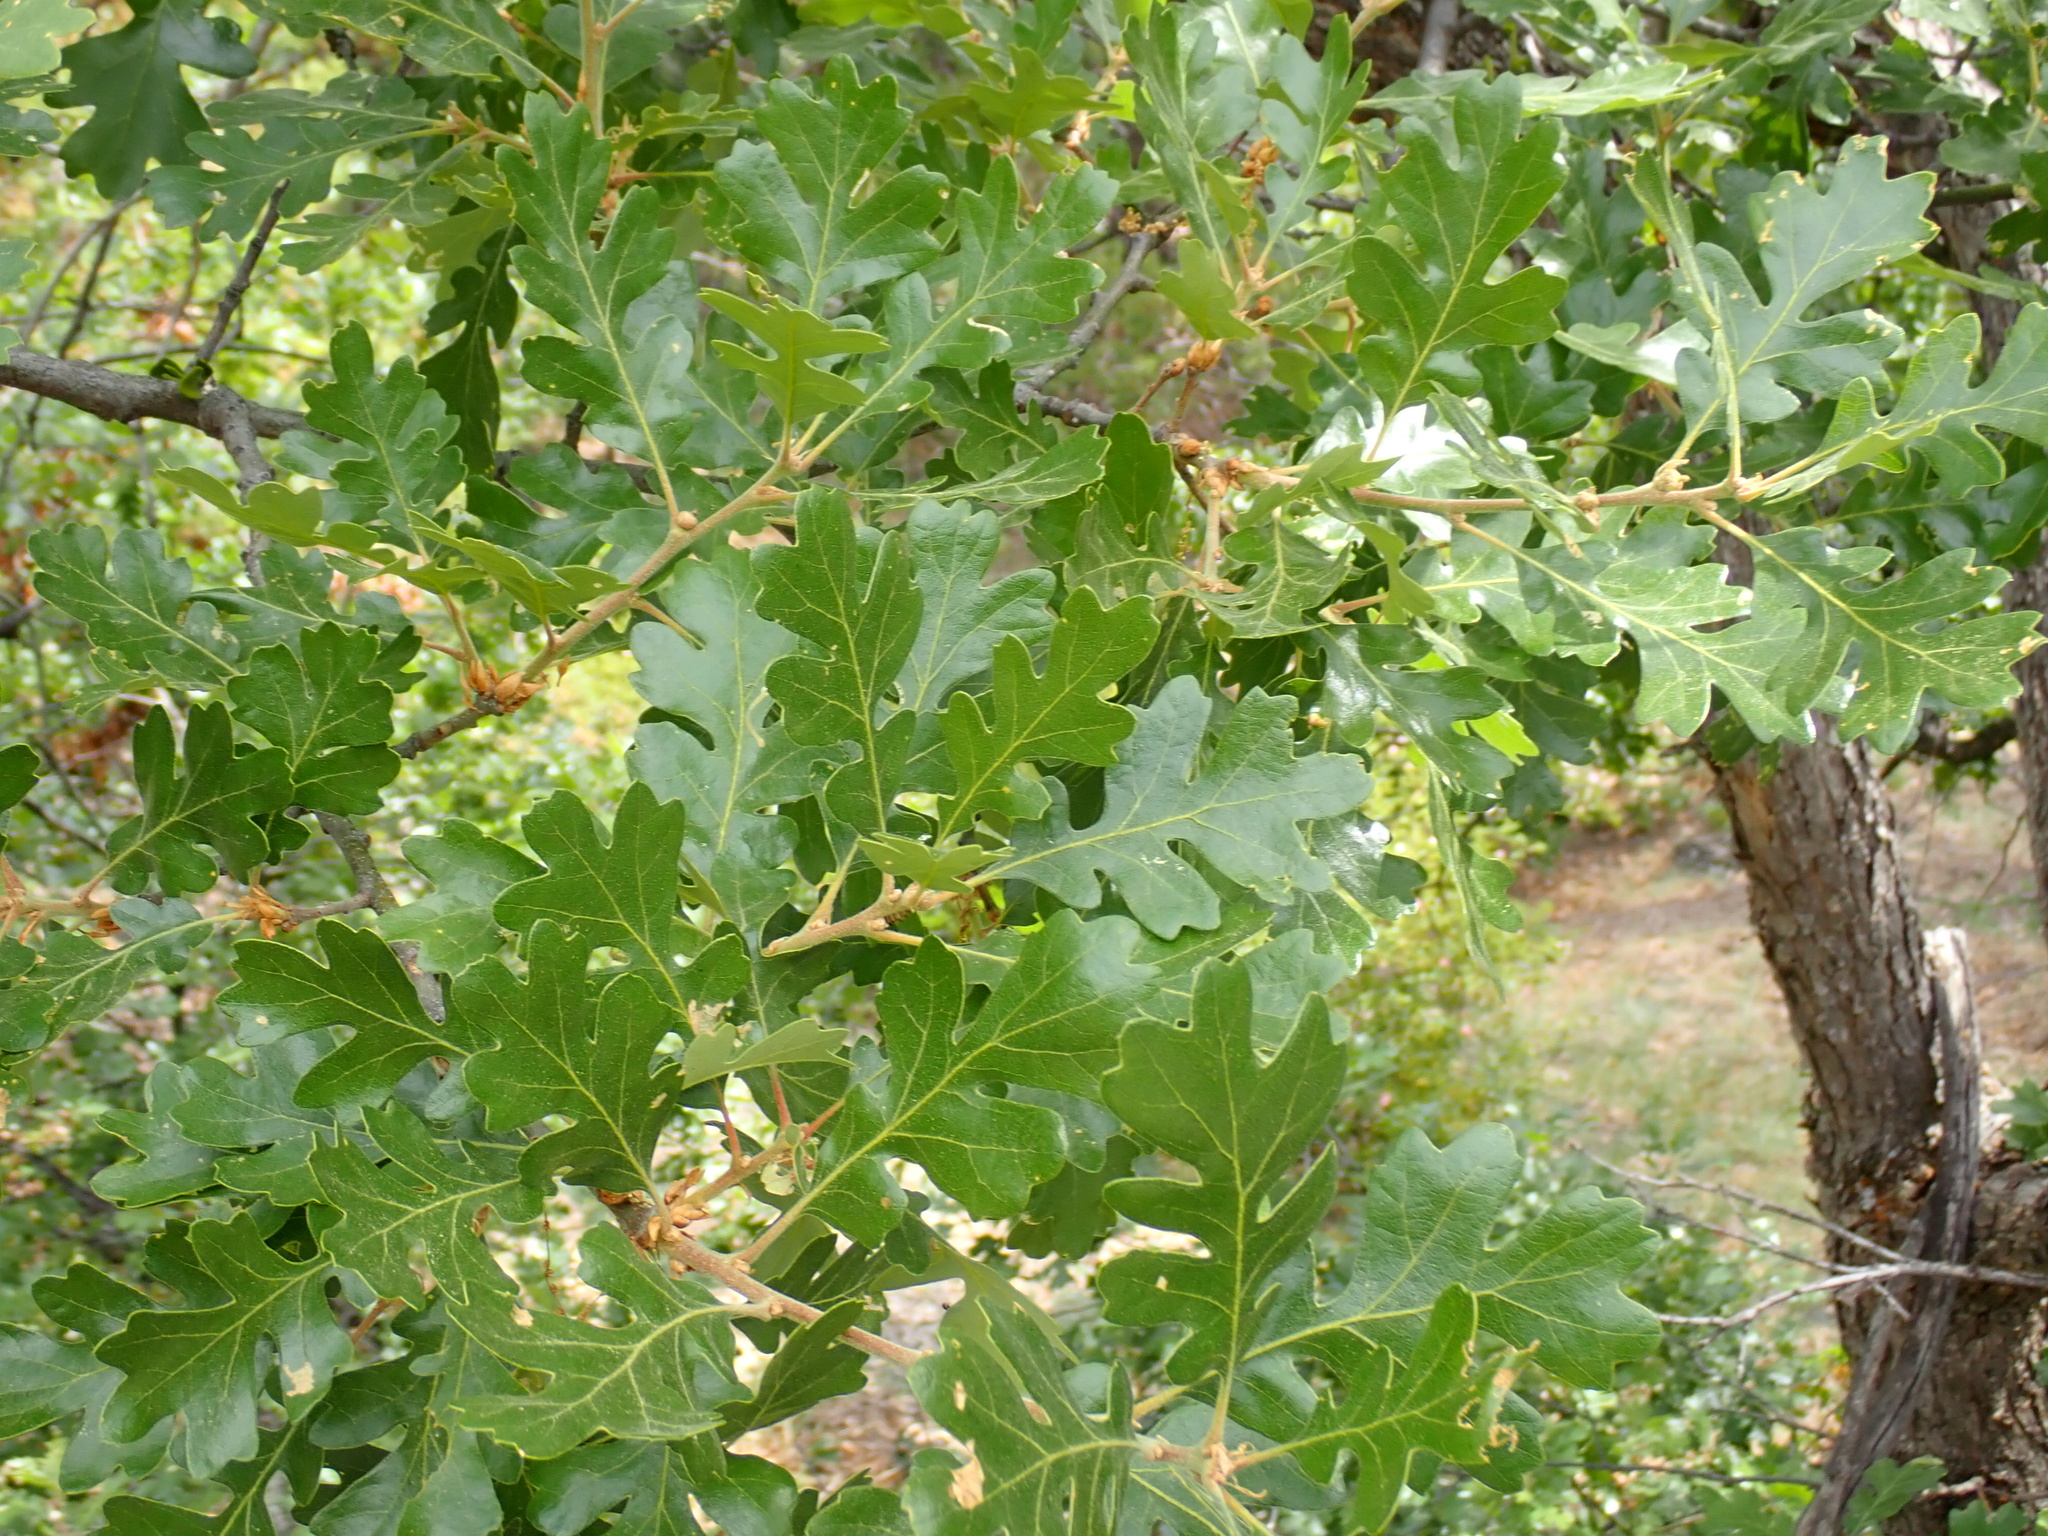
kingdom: Plantae
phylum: Tracheophyta
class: Magnoliopsida
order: Fagales
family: Fagaceae
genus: Quercus
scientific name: Quercus garryana
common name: Garry oak
